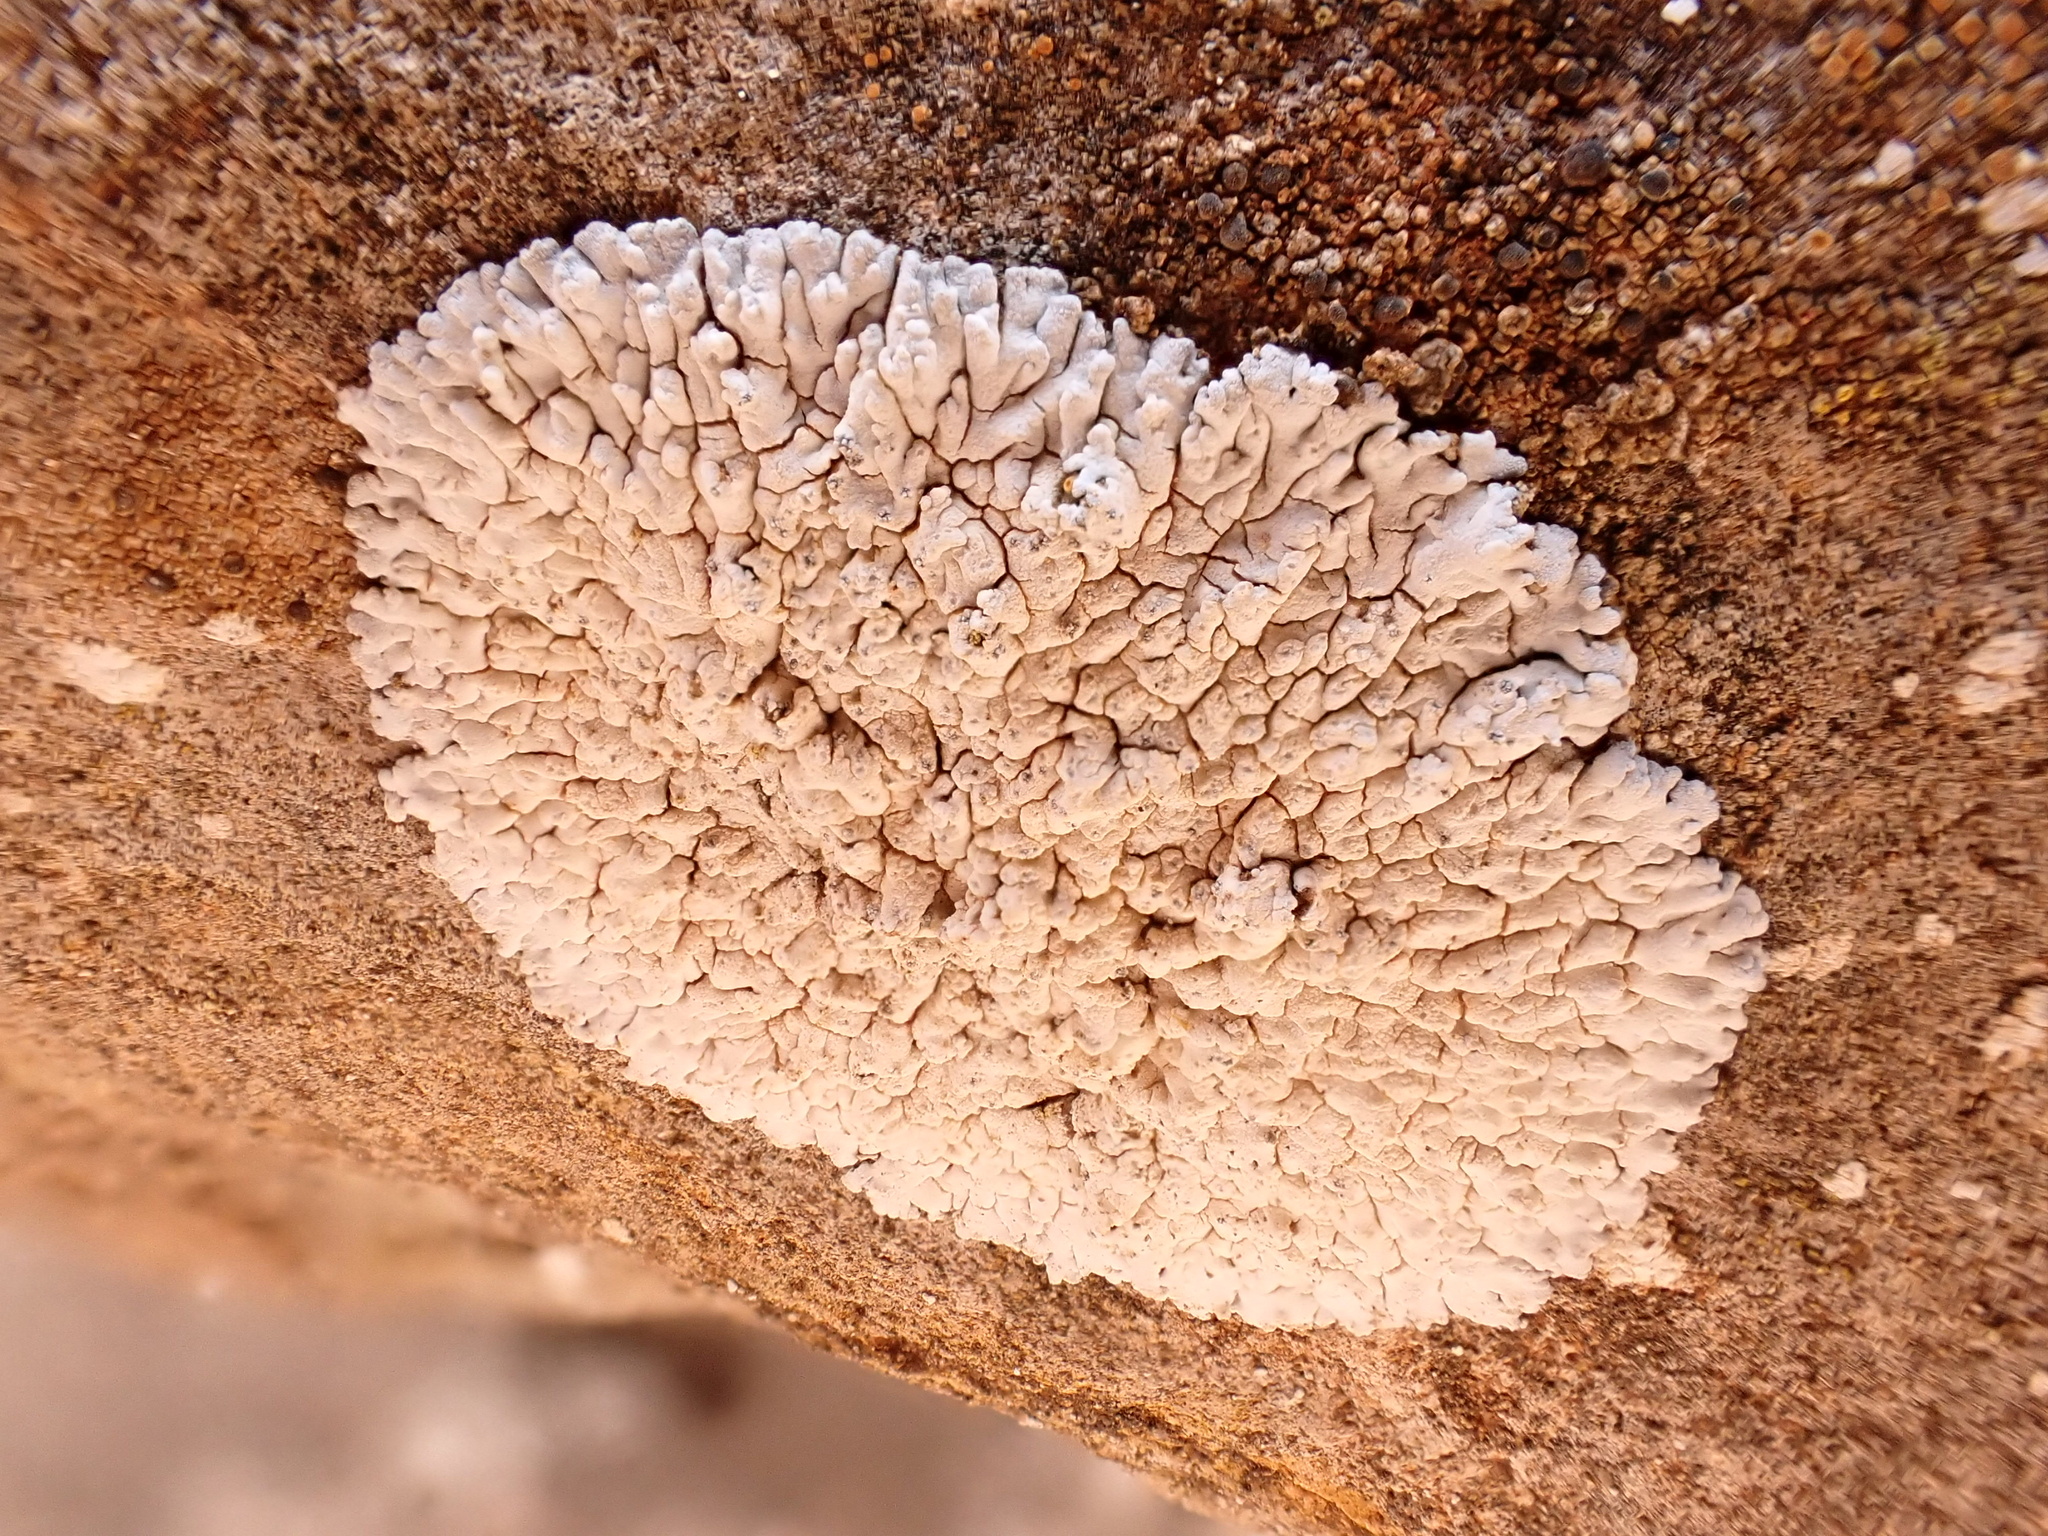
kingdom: Fungi
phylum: Ascomycota
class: Lecanoromycetes
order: Caliciales
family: Caliciaceae
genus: Diploicia
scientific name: Diploicia canescens
